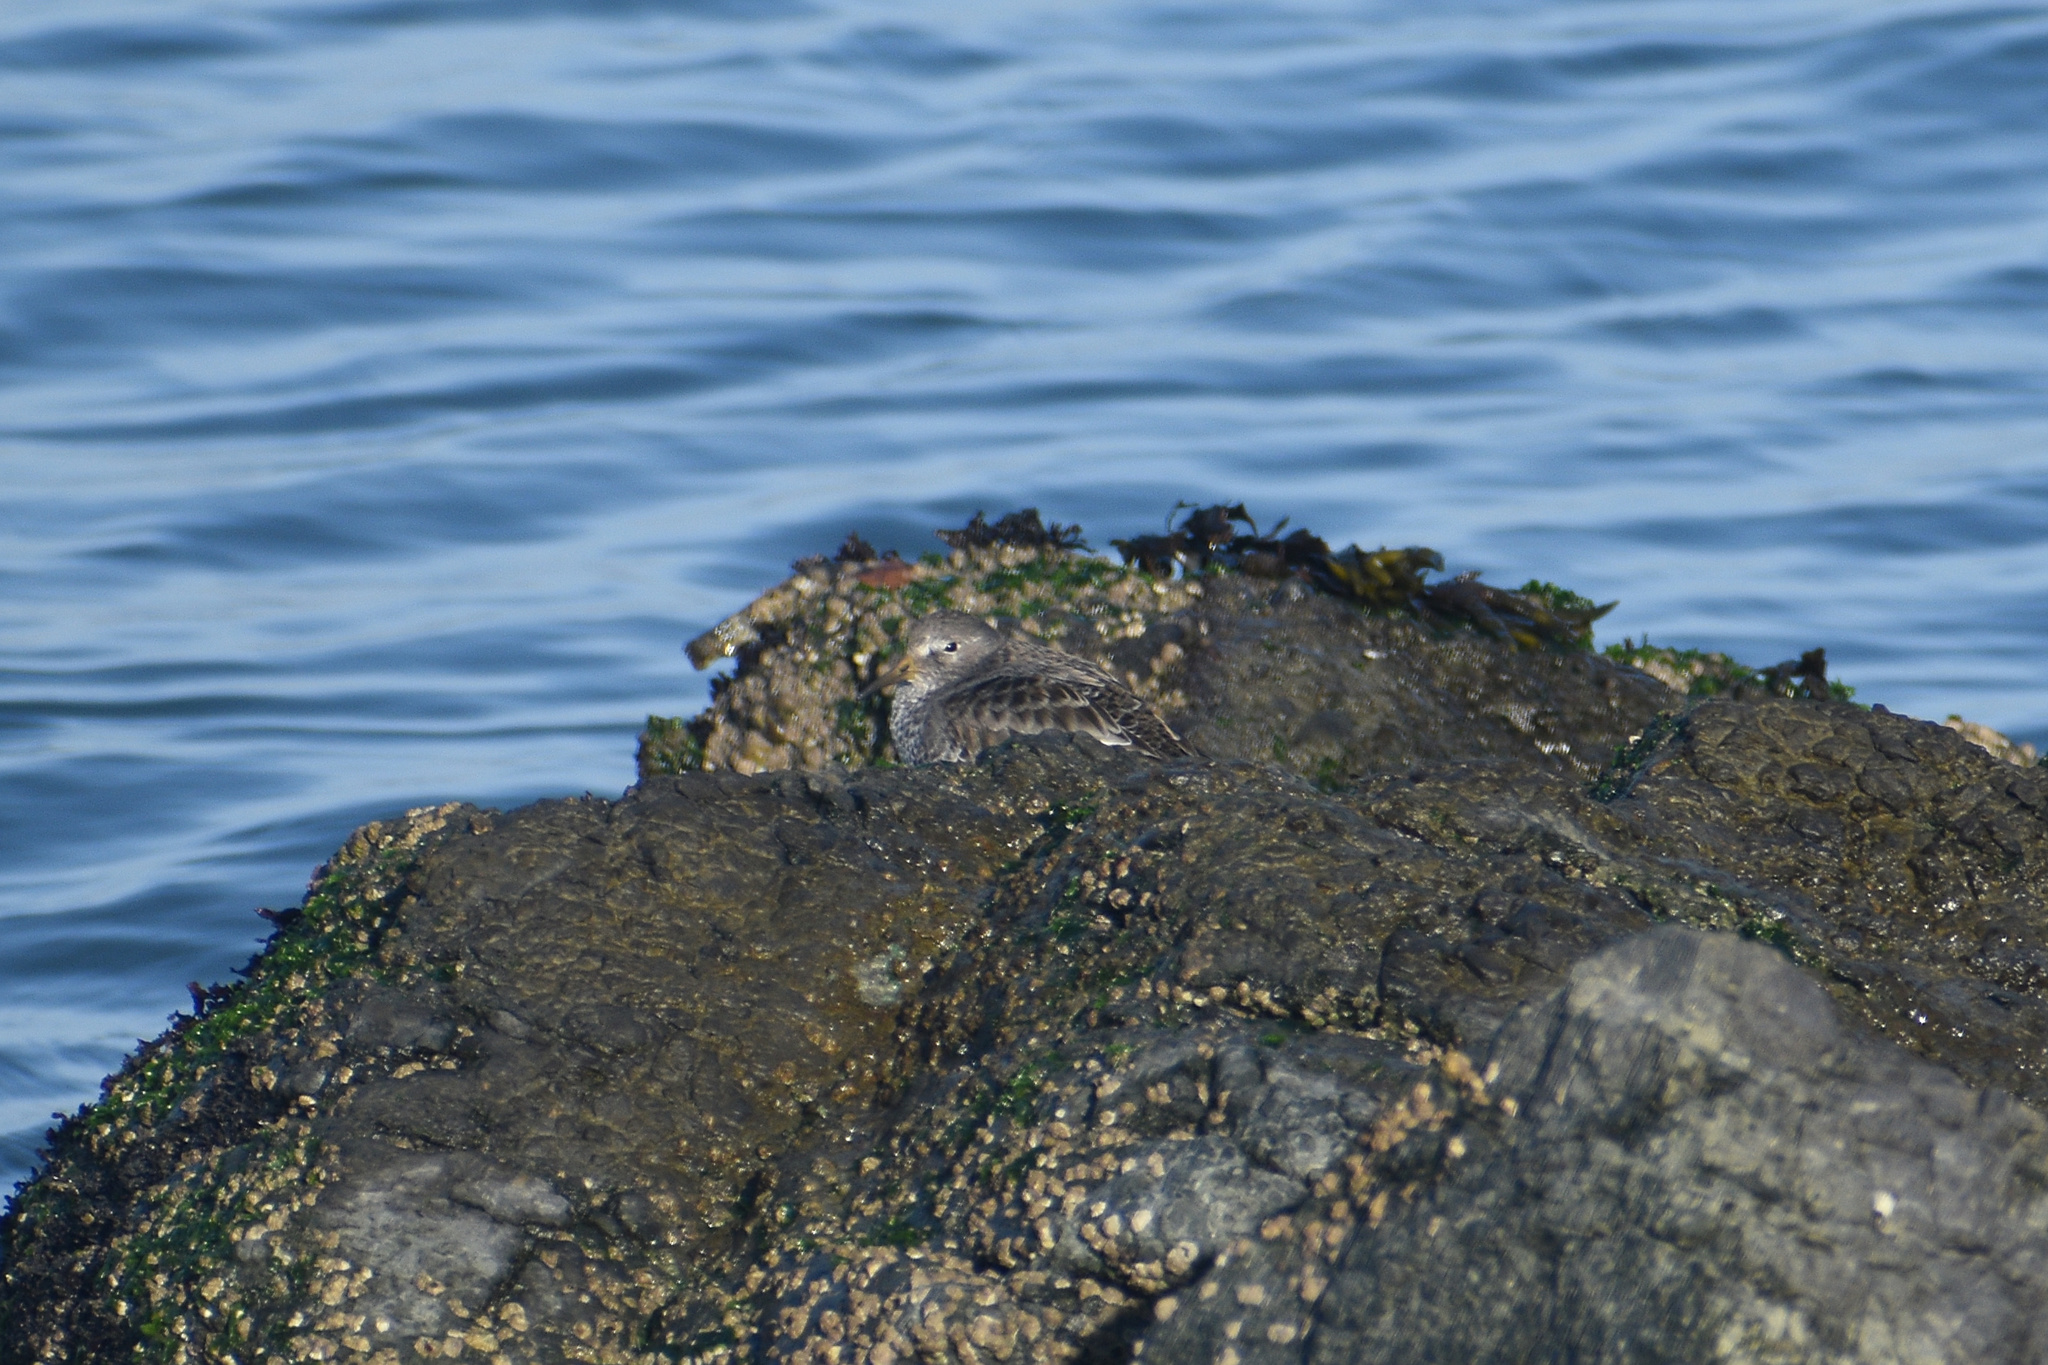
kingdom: Animalia
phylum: Chordata
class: Aves
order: Charadriiformes
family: Scolopacidae
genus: Calidris
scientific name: Calidris ptilocnemis
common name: Rock sandpiper
